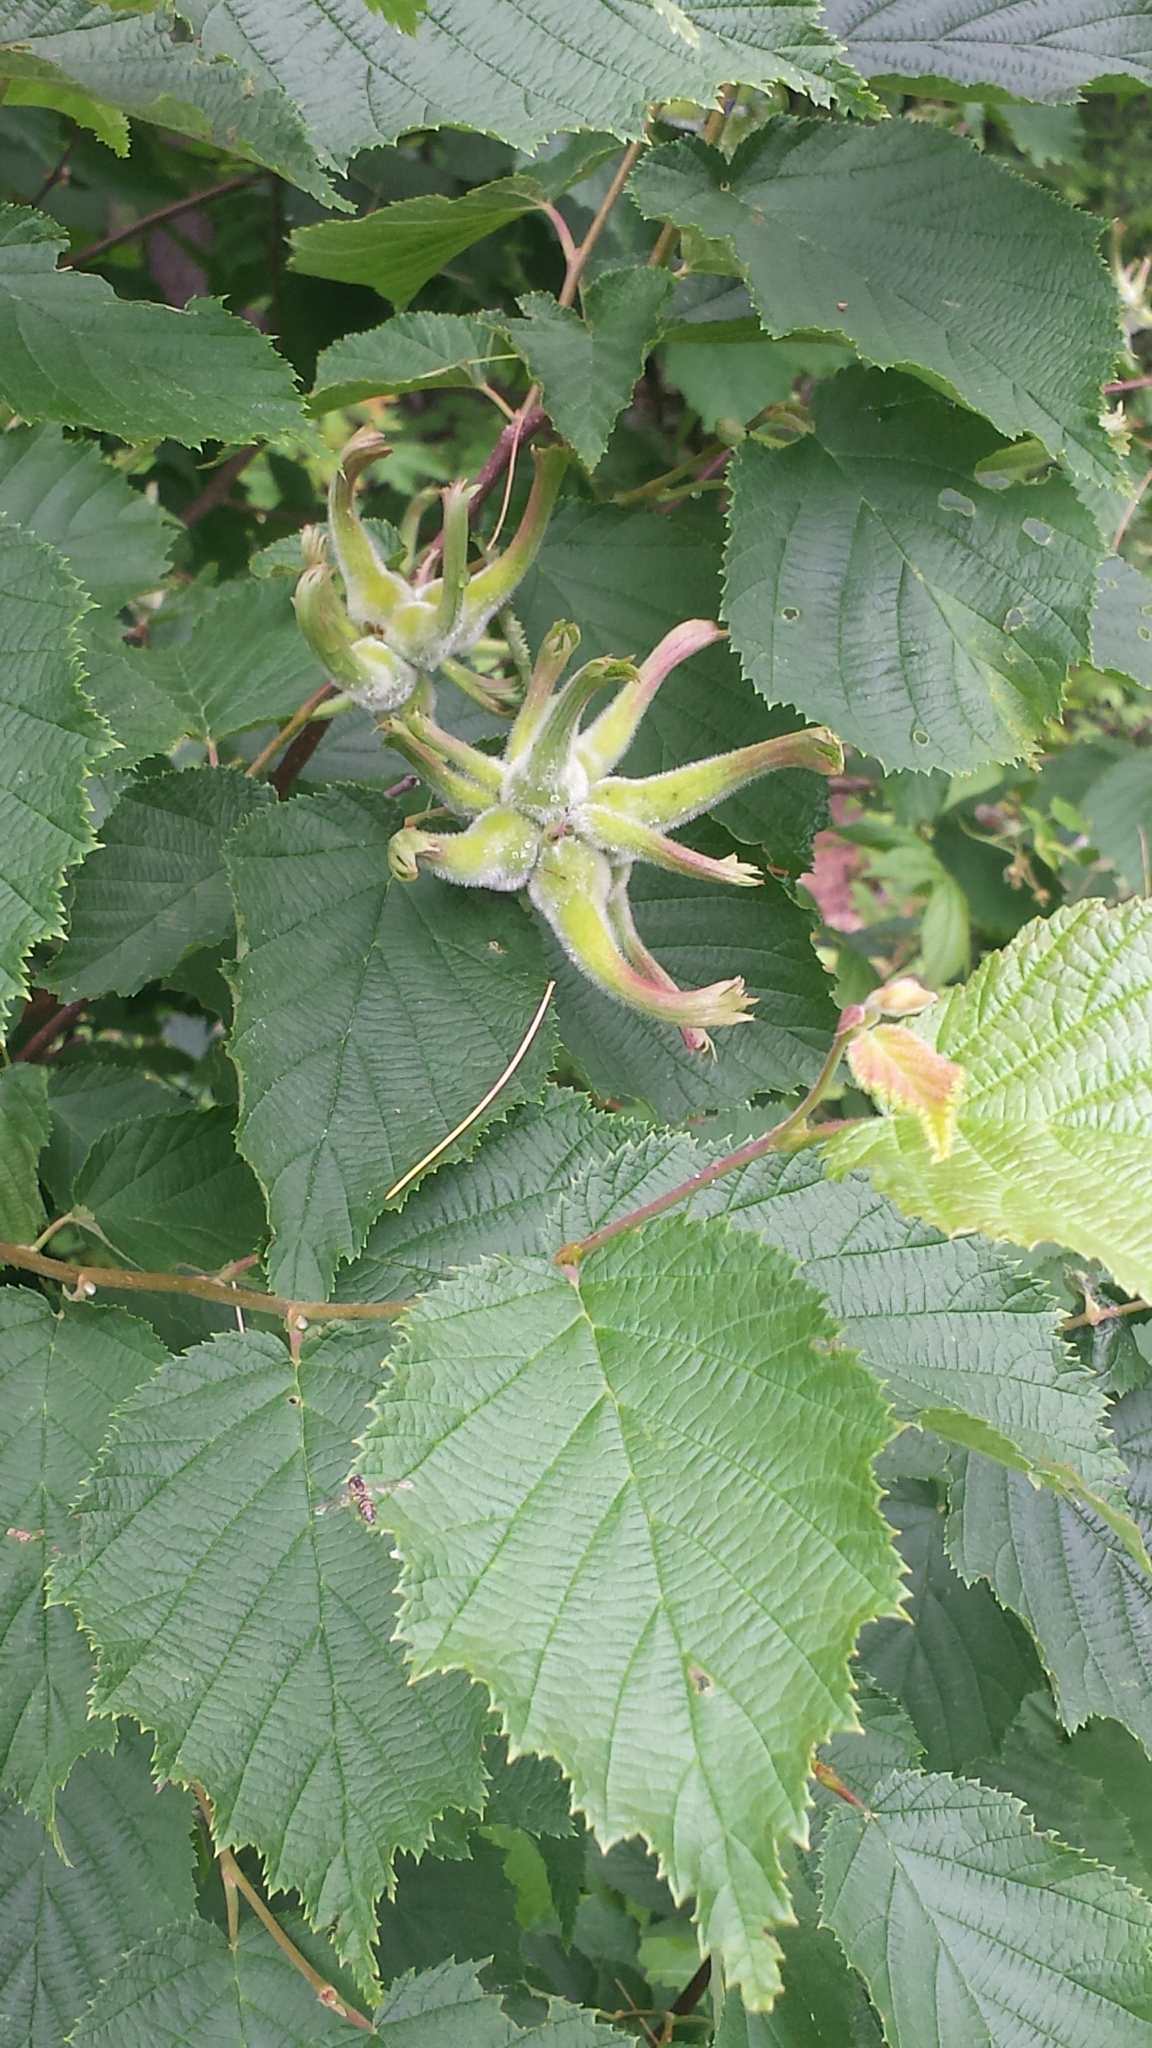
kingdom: Plantae
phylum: Tracheophyta
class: Magnoliopsida
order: Fagales
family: Betulaceae
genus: Corylus
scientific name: Corylus cornuta
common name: Beaked hazel
